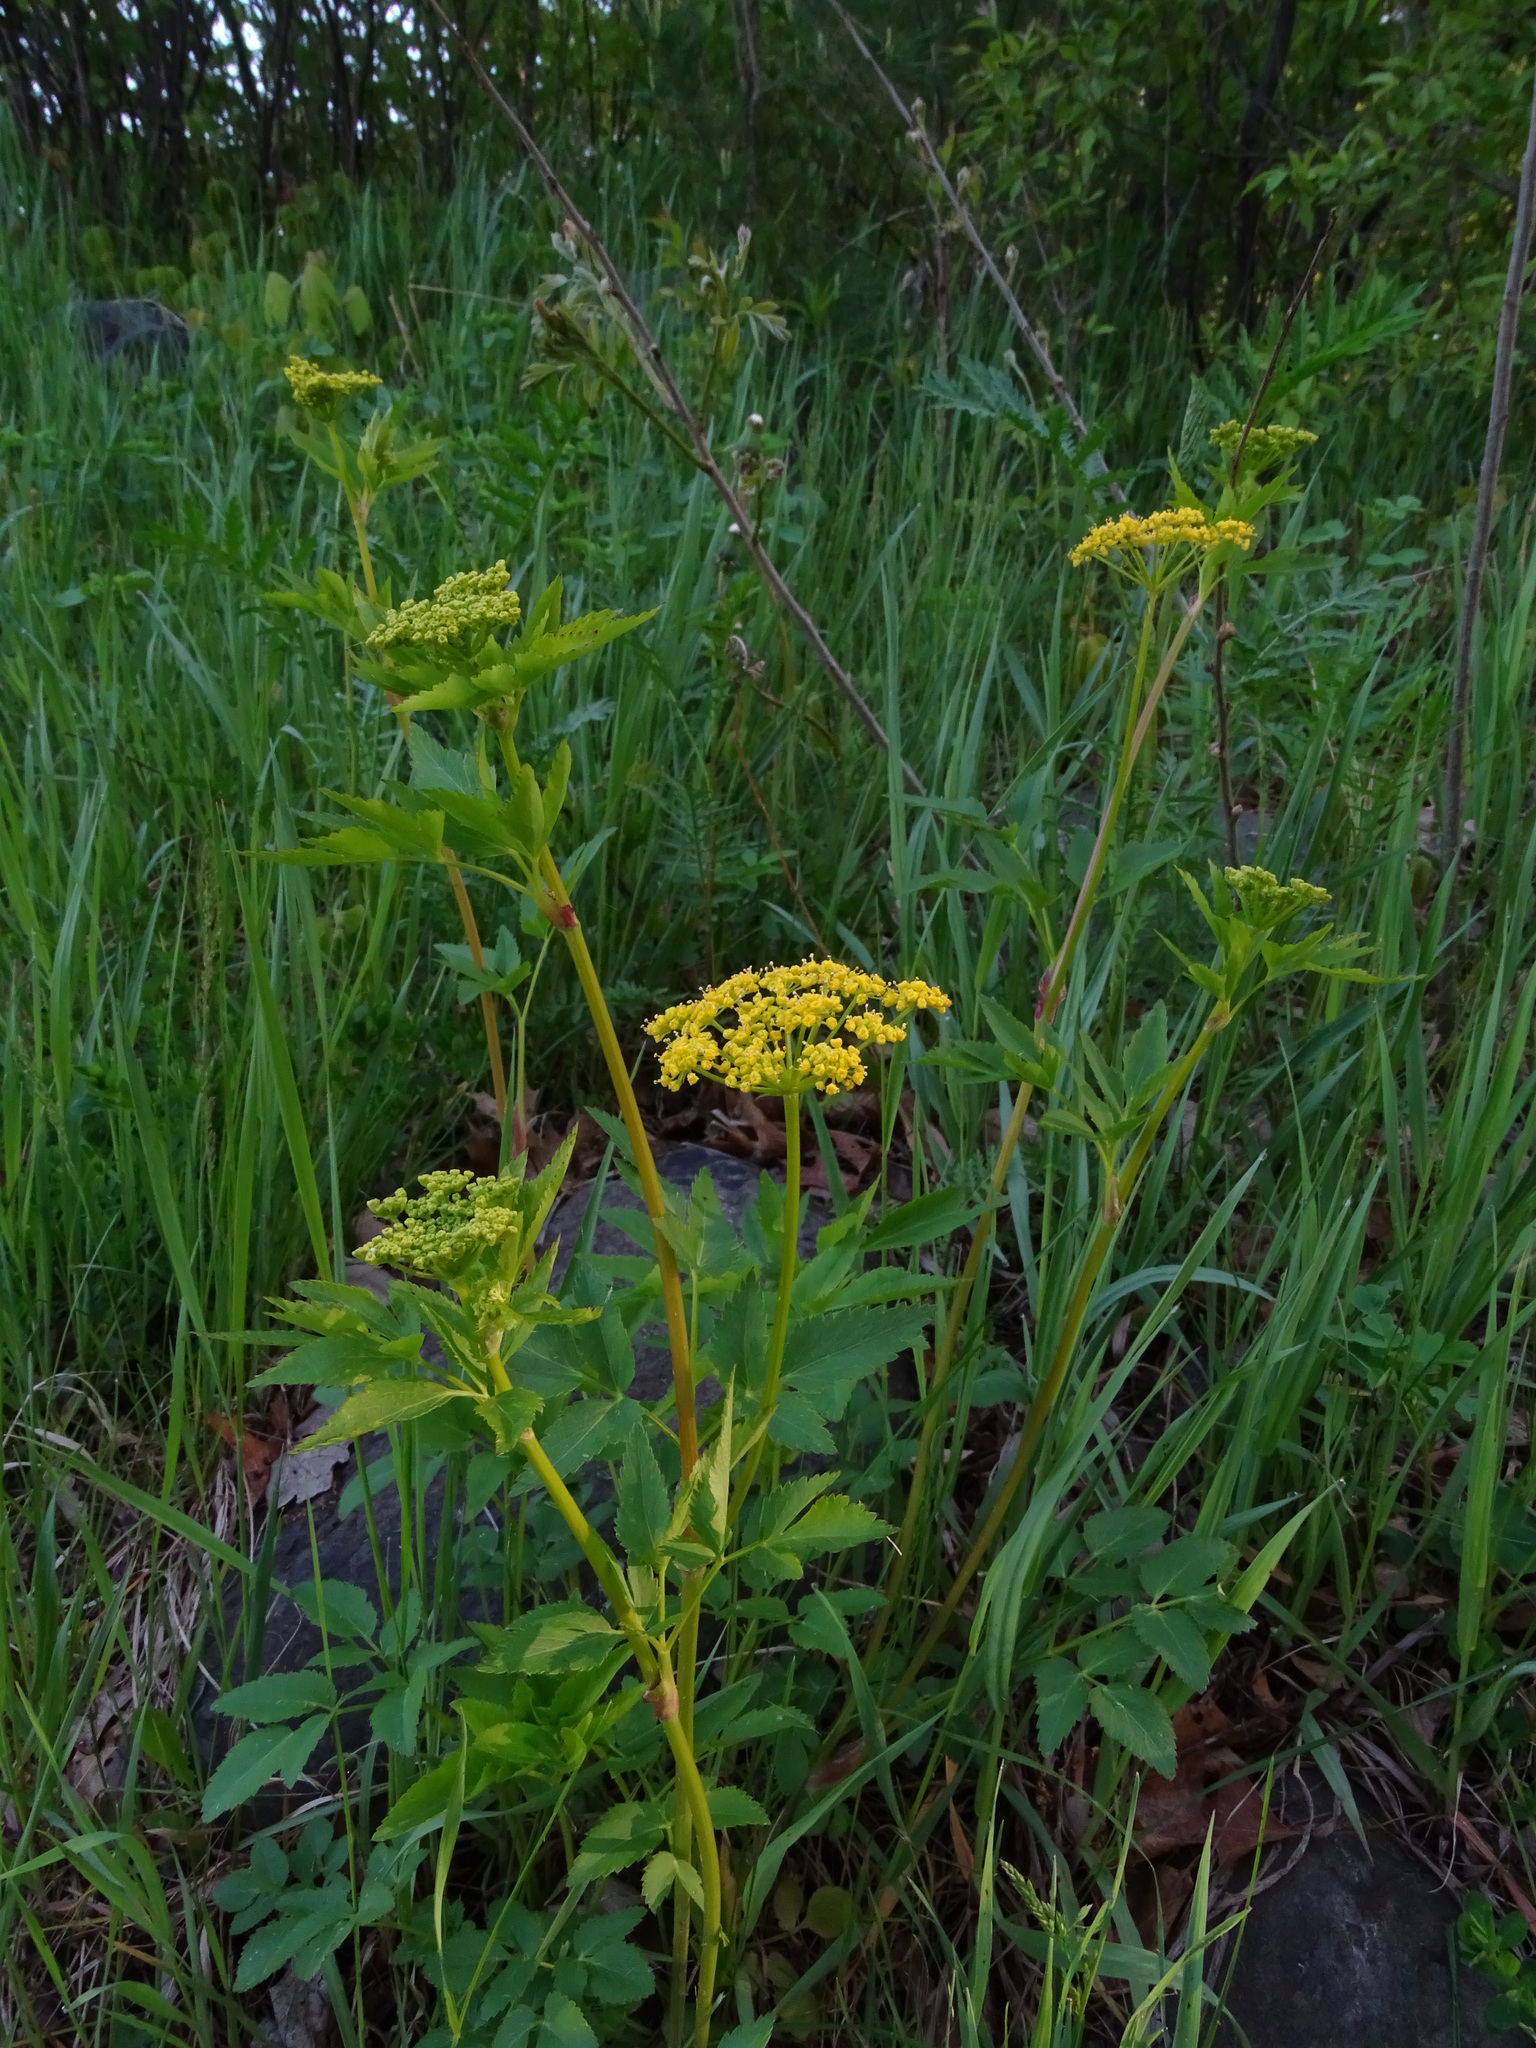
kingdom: Plantae
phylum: Tracheophyta
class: Magnoliopsida
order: Apiales
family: Apiaceae
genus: Zizia
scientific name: Zizia aurea
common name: Golden alexanders
